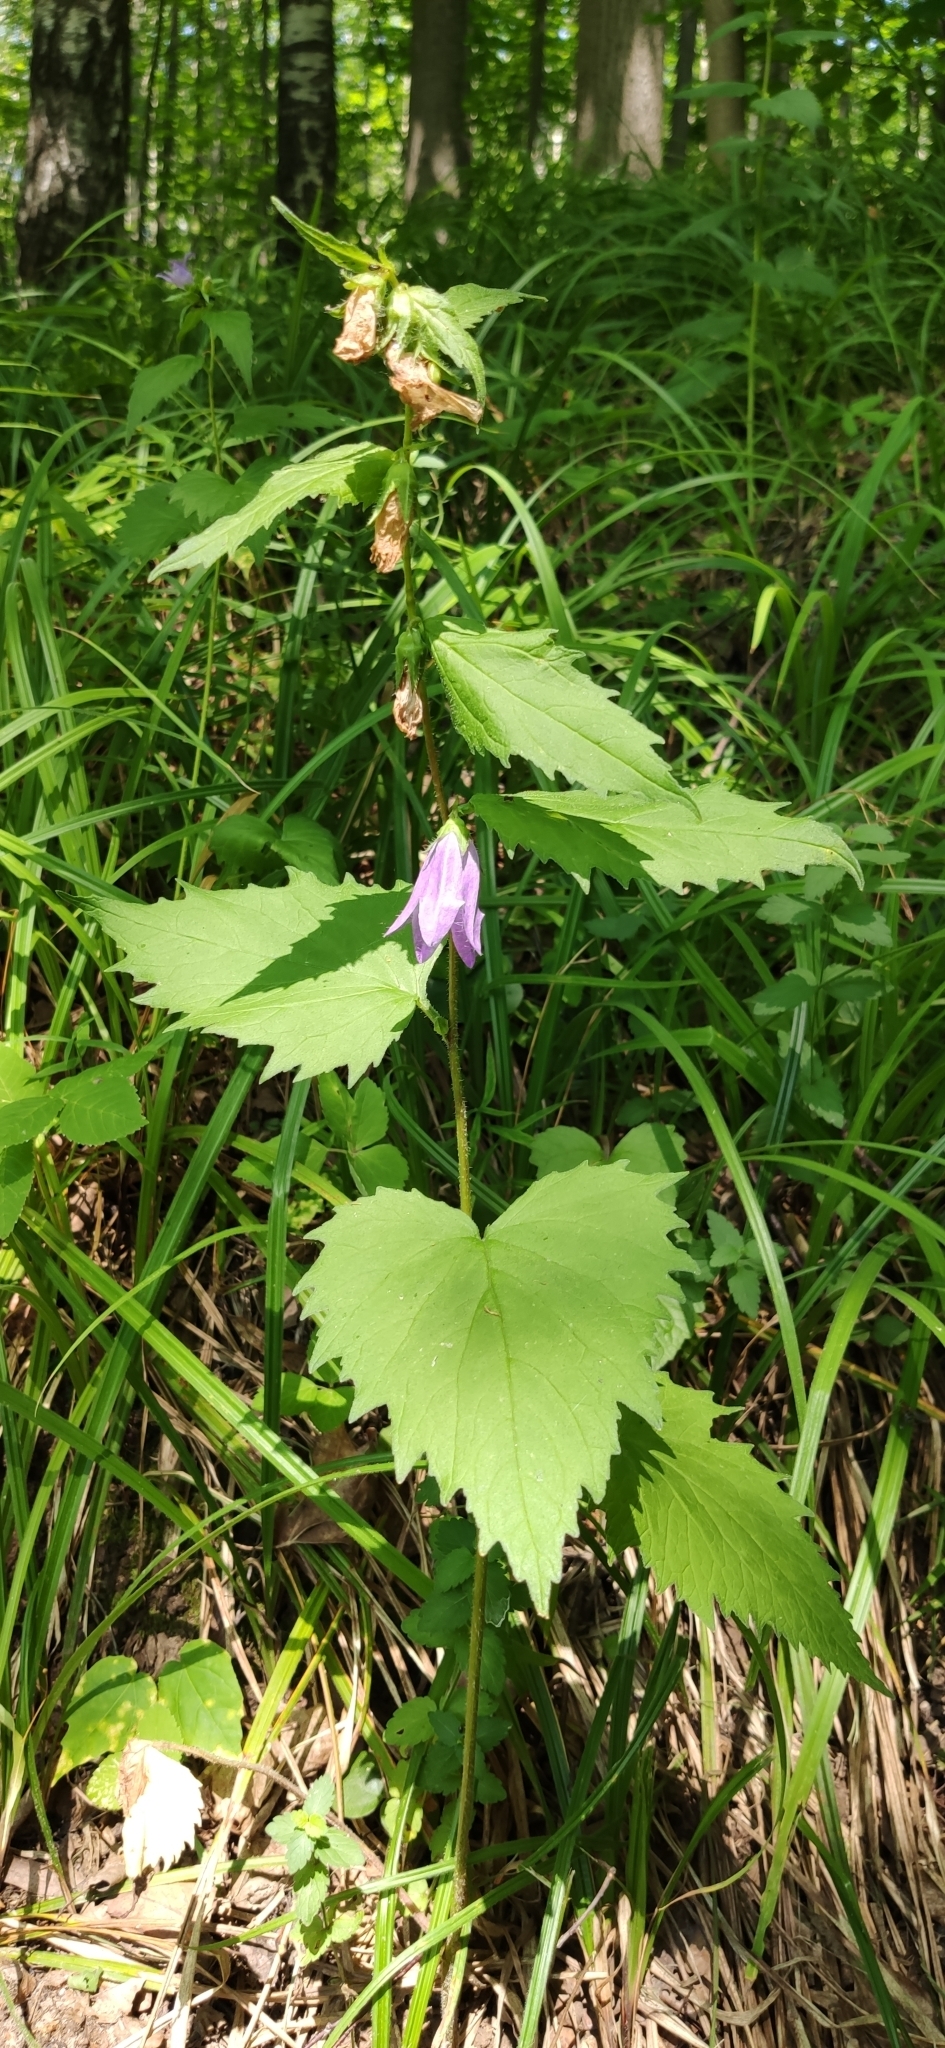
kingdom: Plantae
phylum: Tracheophyta
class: Magnoliopsida
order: Asterales
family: Campanulaceae
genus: Campanula
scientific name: Campanula trachelium
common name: Nettle-leaved bellflower
